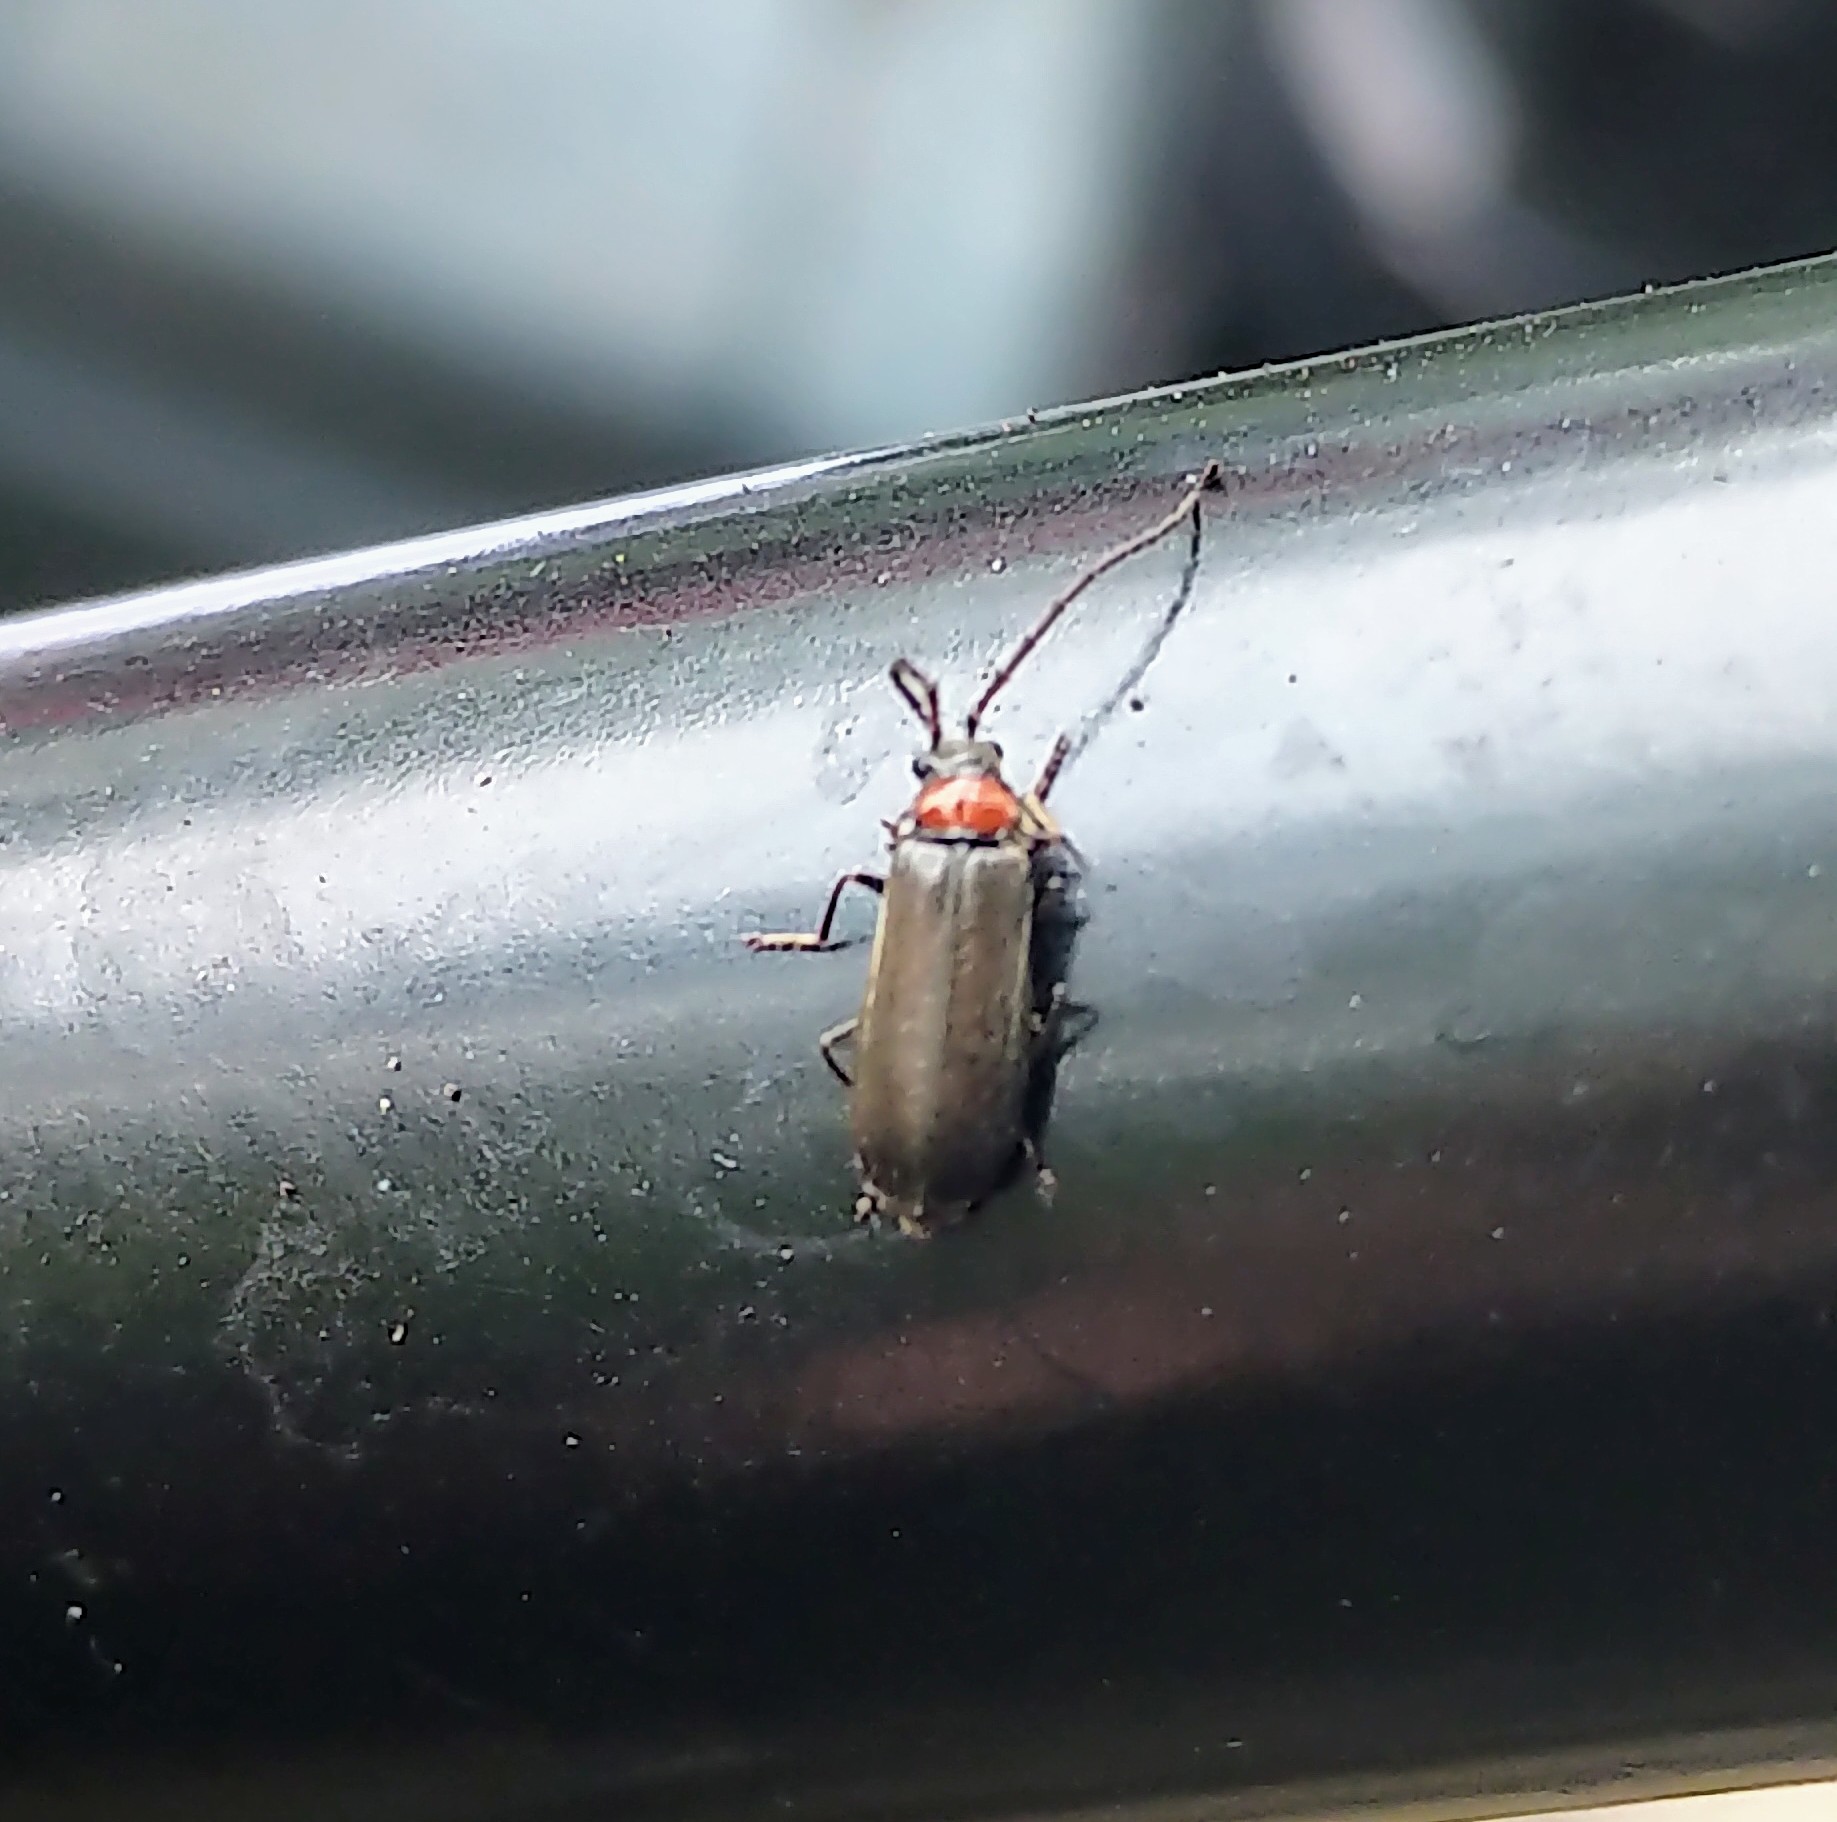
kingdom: Animalia
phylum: Arthropoda
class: Insecta
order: Coleoptera
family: Cantharidae
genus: Silis
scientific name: Silis difficilis
